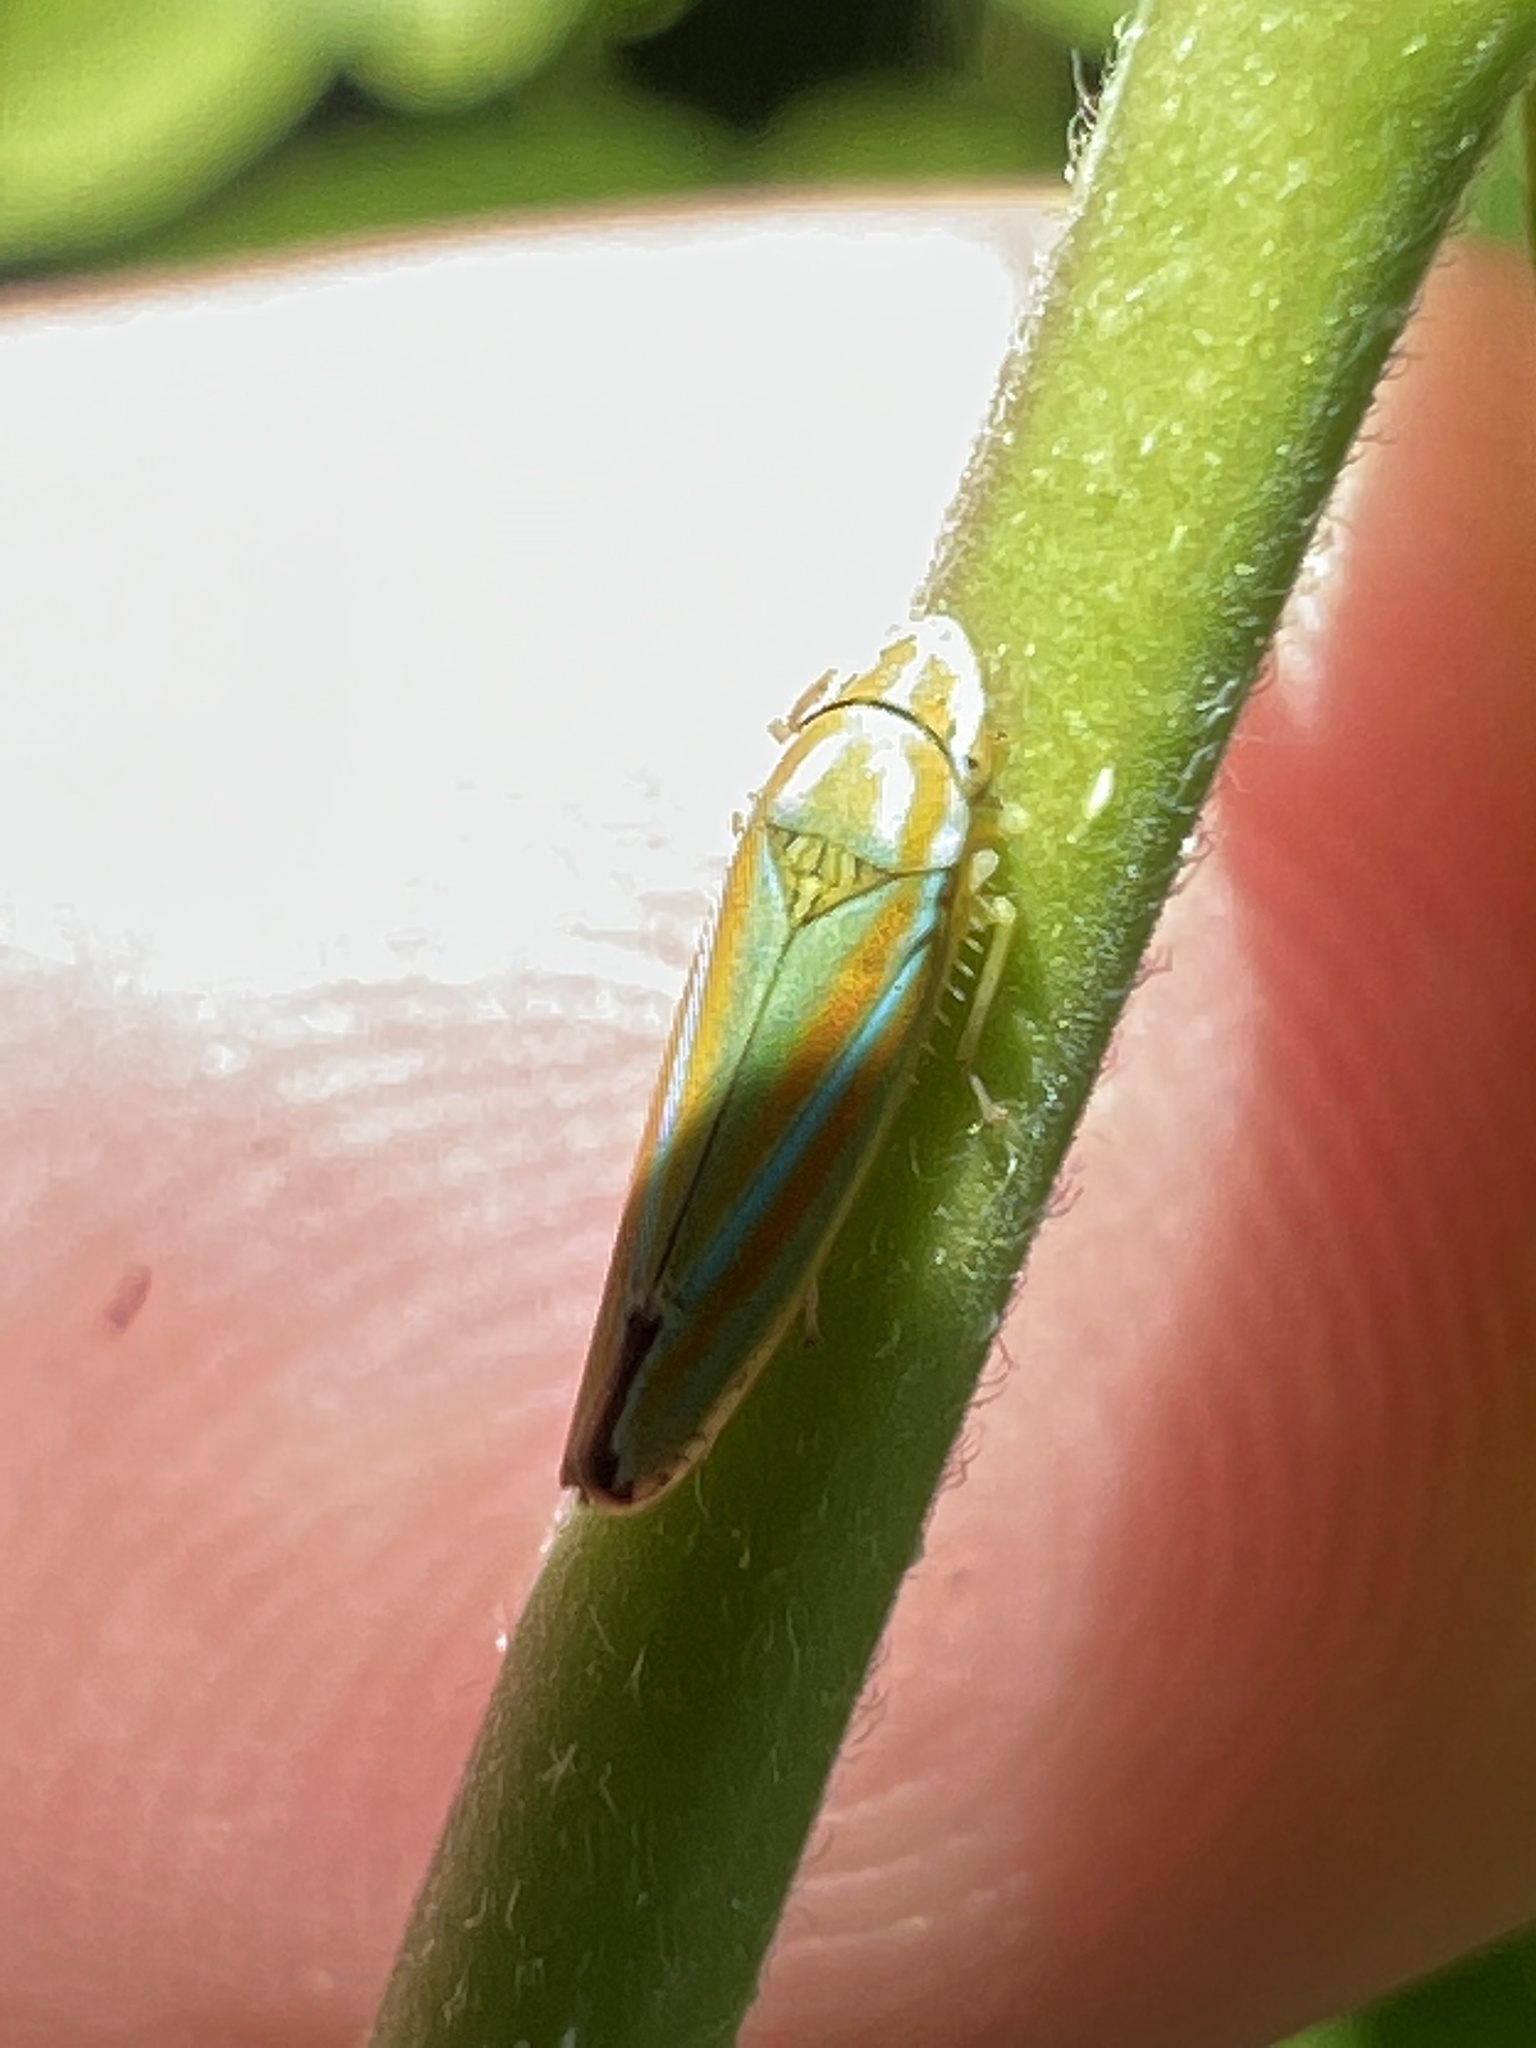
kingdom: Animalia
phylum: Arthropoda
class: Insecta
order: Hemiptera
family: Cicadellidae
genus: Graphocephala
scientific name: Graphocephala versuta
